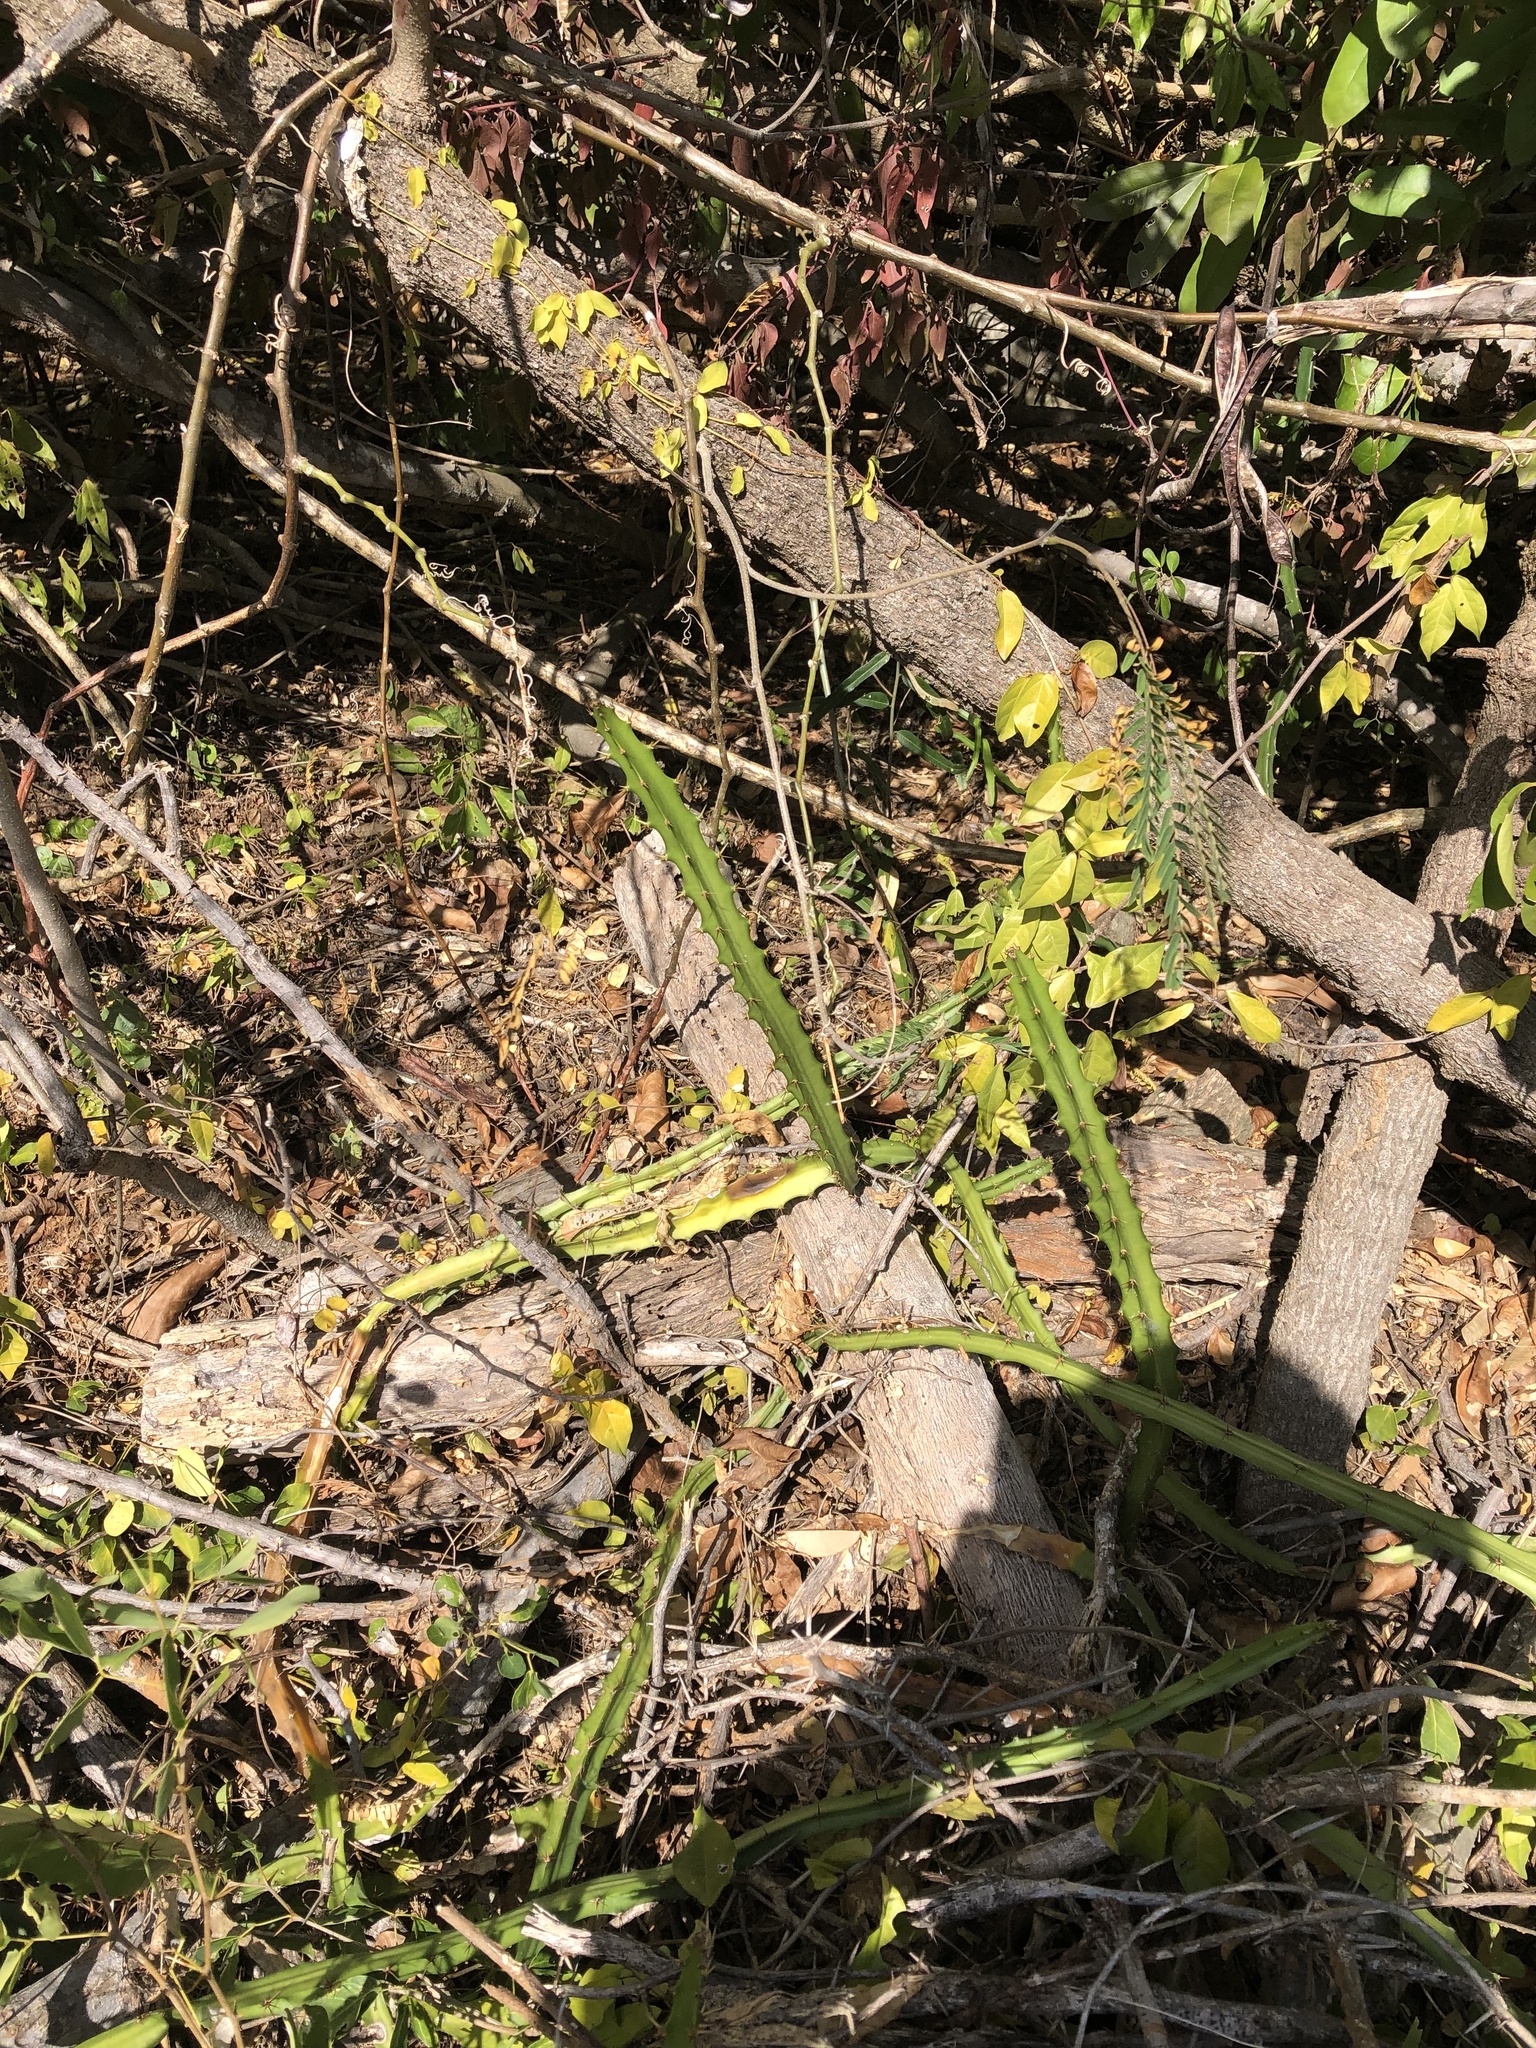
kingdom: Plantae
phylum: Tracheophyta
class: Magnoliopsida
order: Caryophyllales
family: Cactaceae
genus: Selenicereus
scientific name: Selenicereus triangularis
